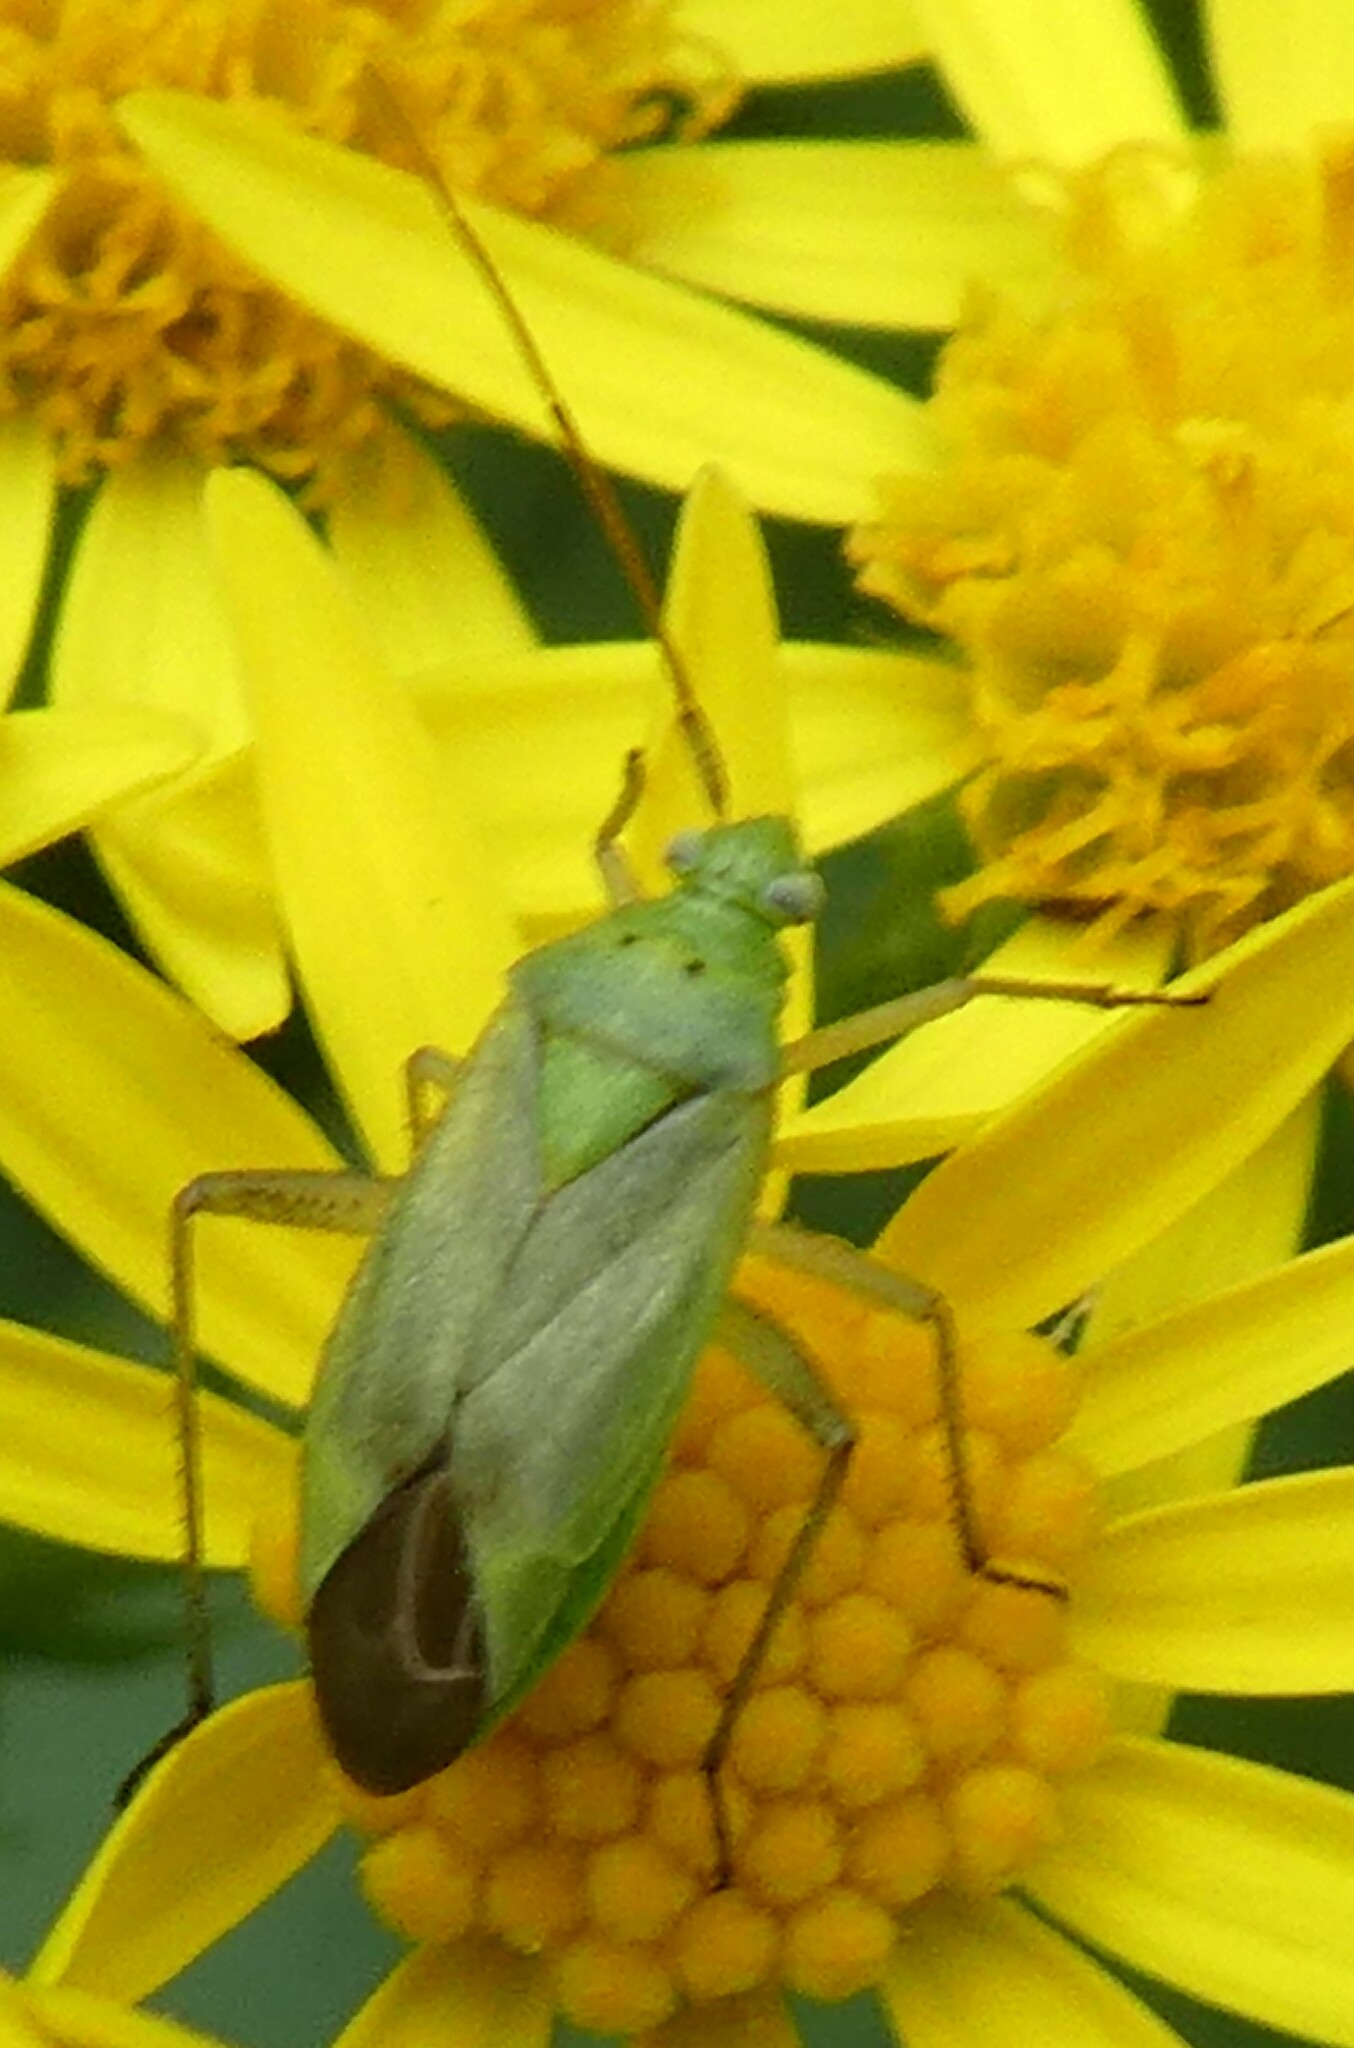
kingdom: Animalia
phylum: Arthropoda
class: Insecta
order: Hemiptera
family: Miridae
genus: Closterotomus
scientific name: Closterotomus norvegicus
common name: Plant bug
